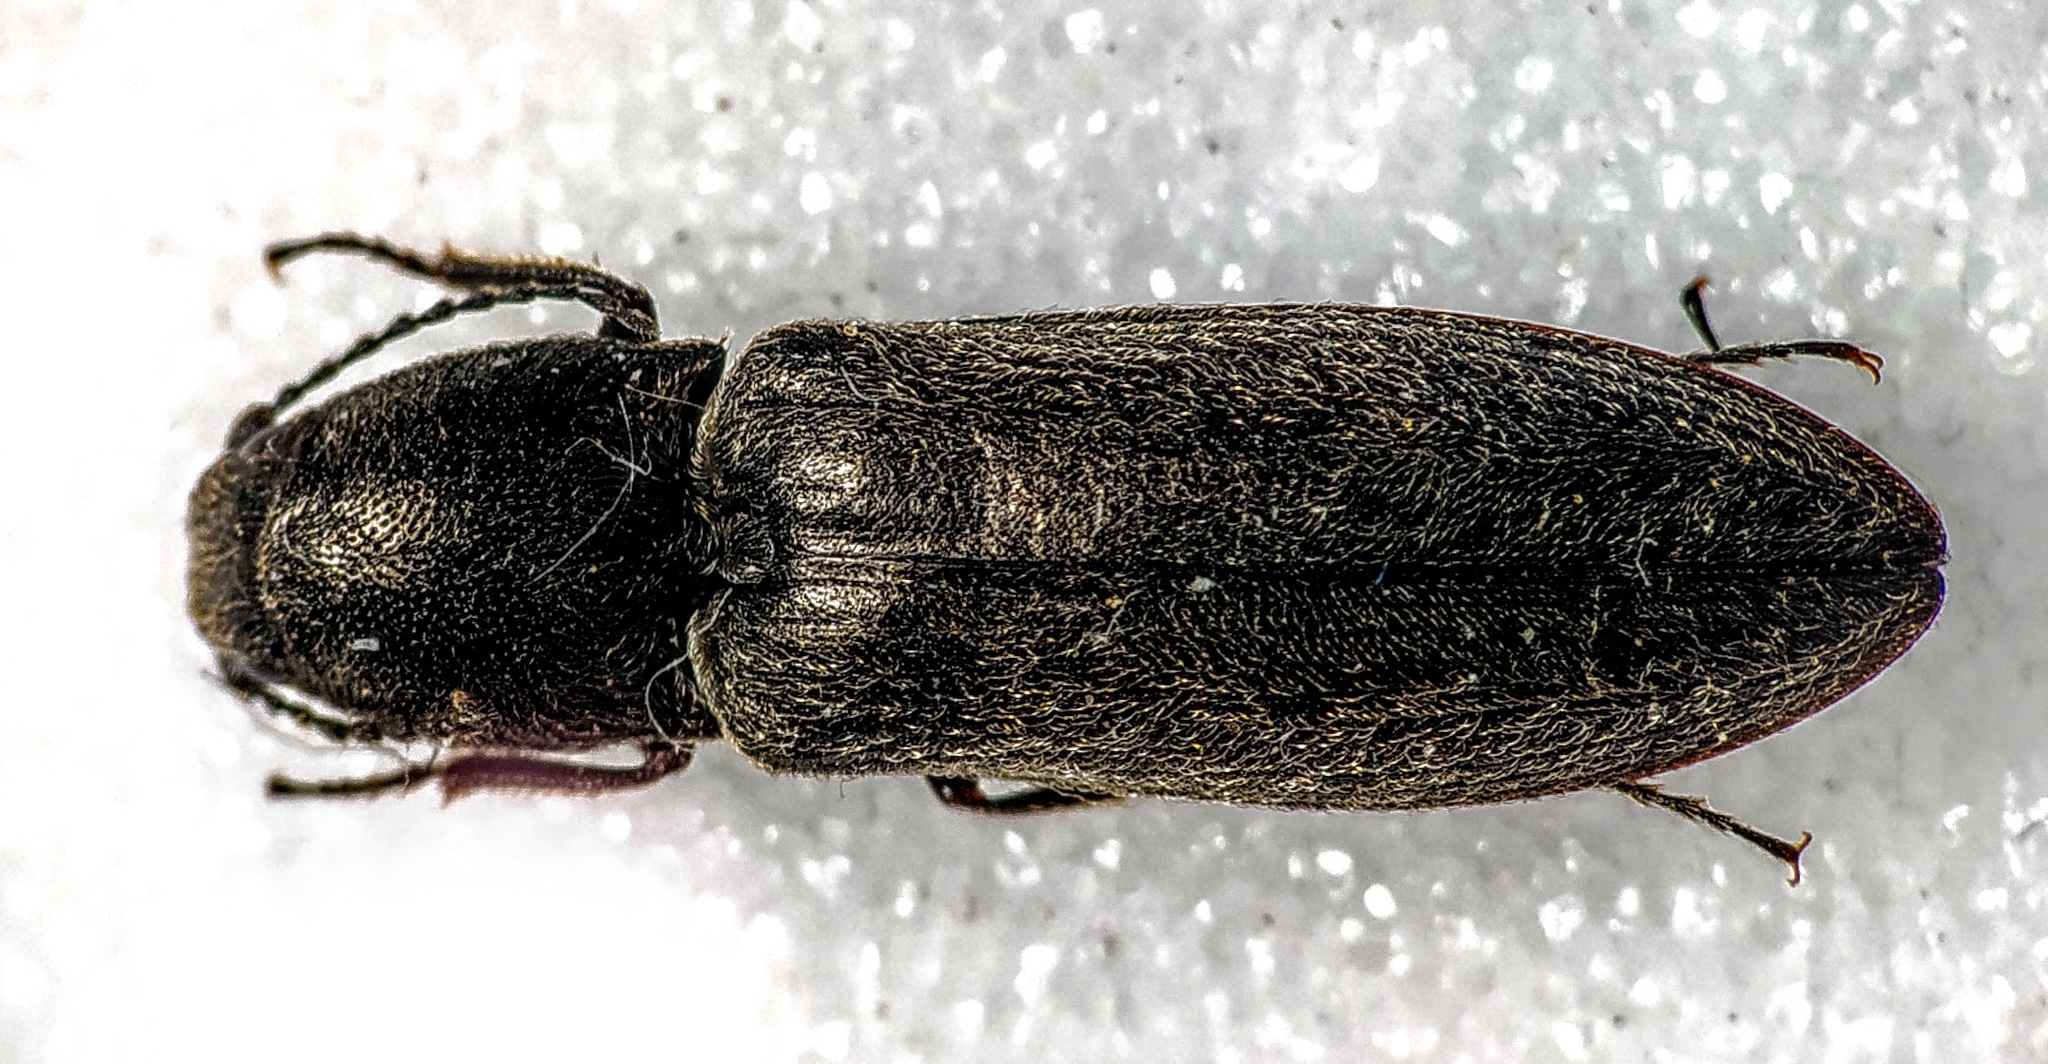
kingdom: Animalia
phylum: Arthropoda
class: Insecta
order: Coleoptera
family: Elateridae
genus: Cidnopus
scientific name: Cidnopus aeruginosus
